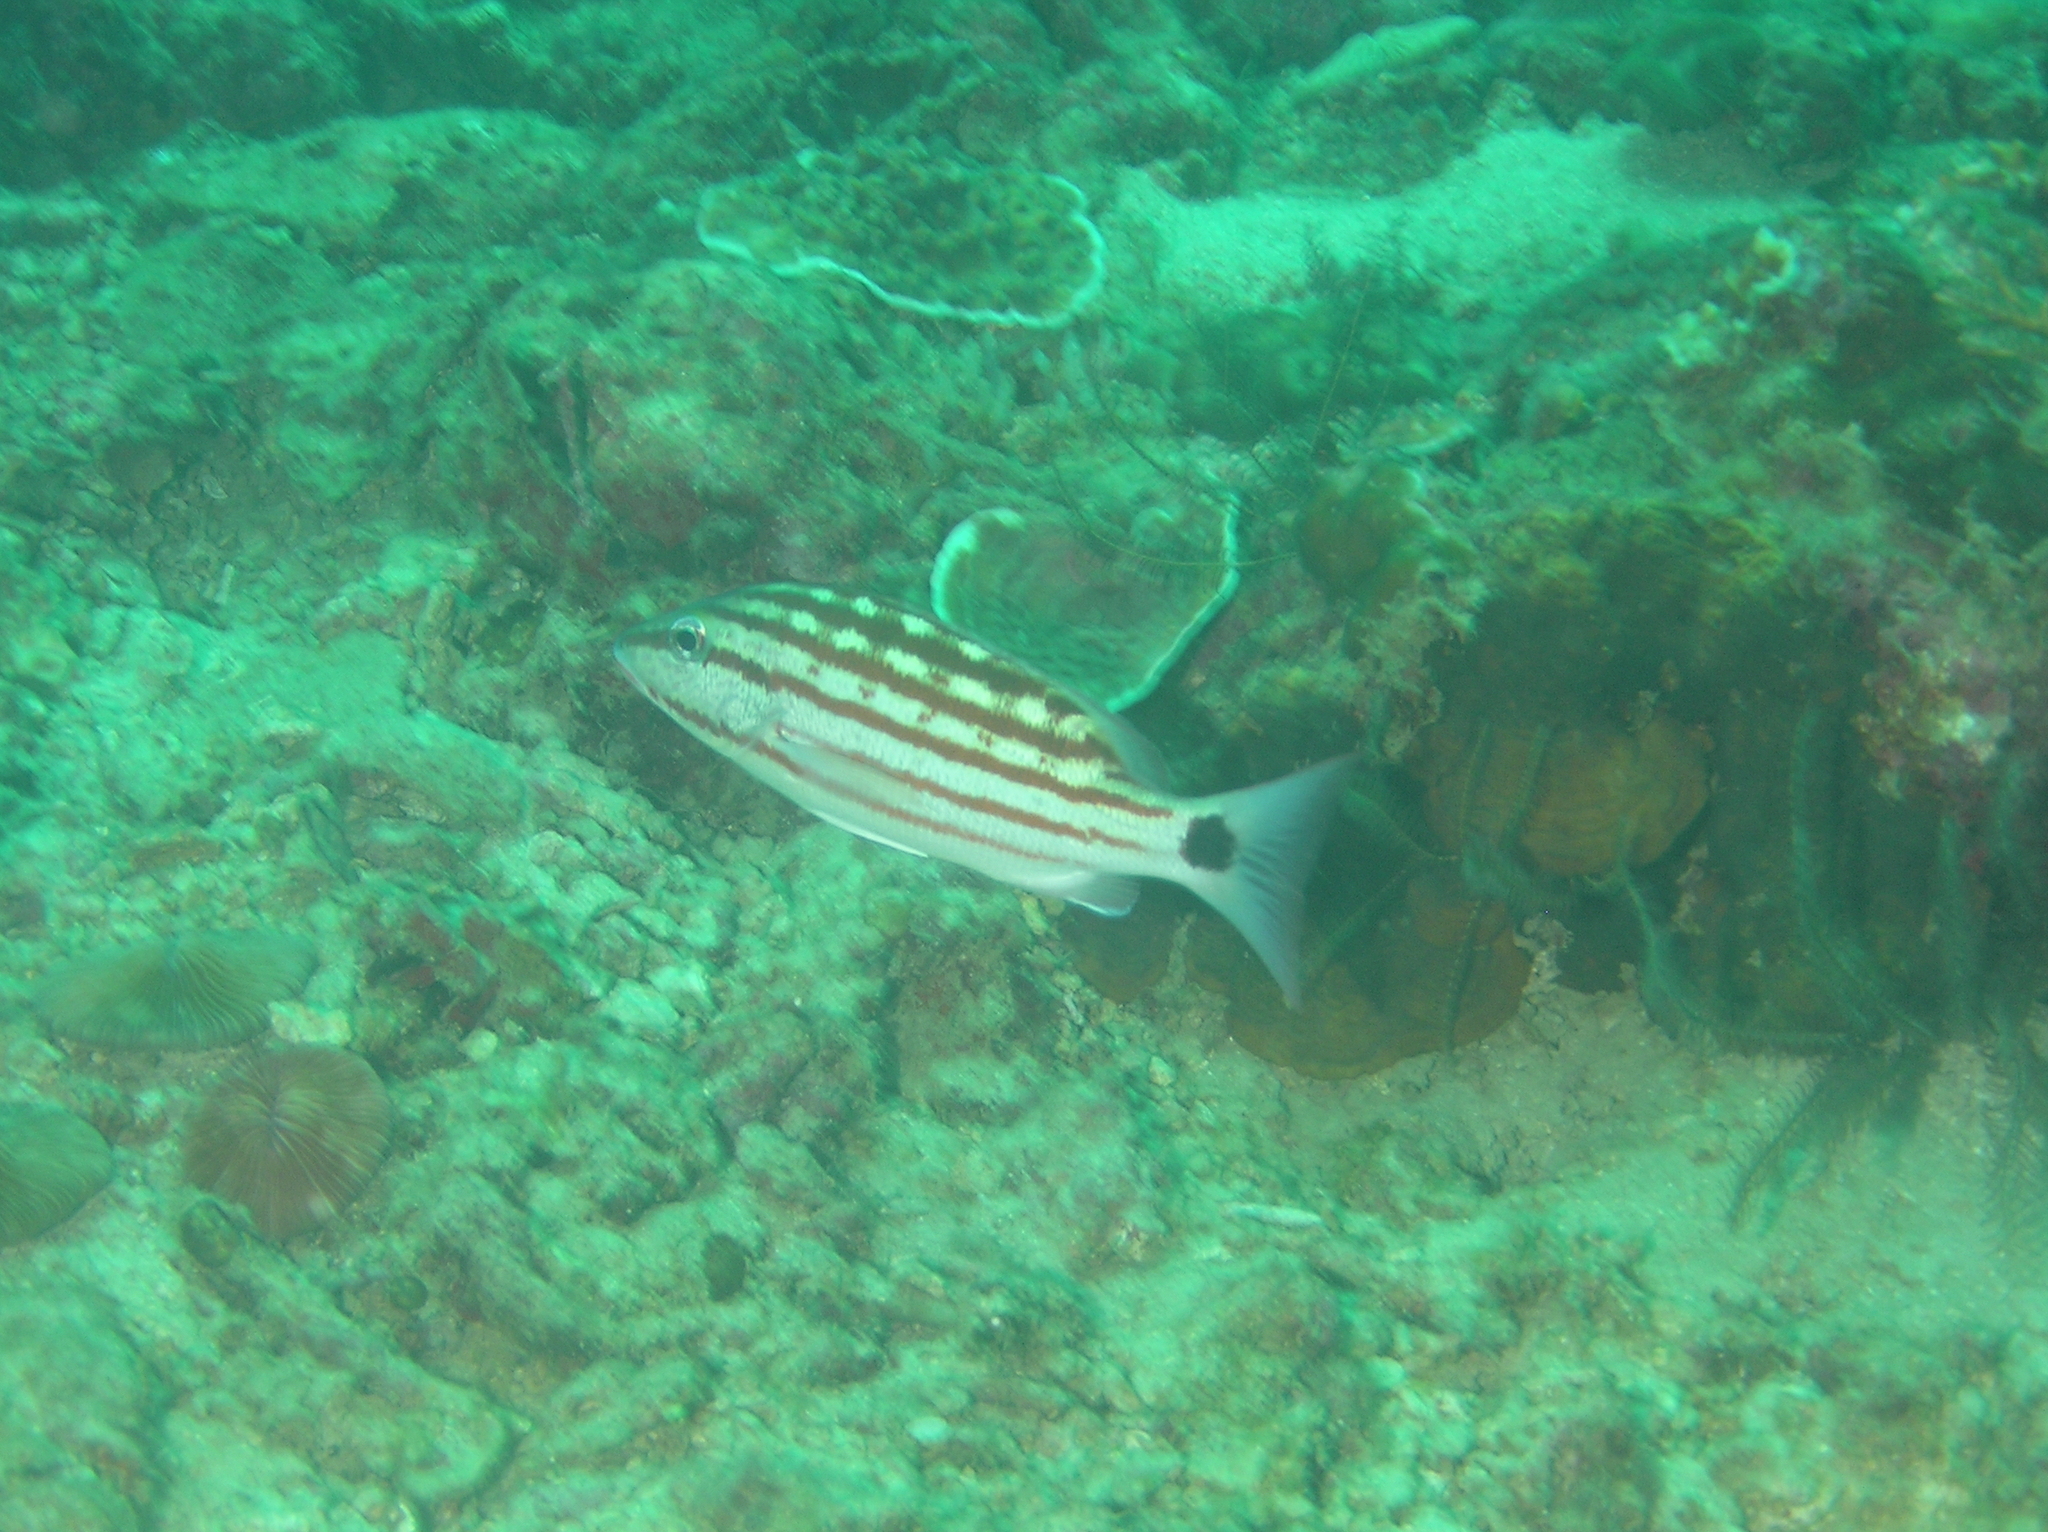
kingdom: Animalia
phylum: Chordata
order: Perciformes
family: Lutjanidae
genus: Lutjanus
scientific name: Lutjanus decussatus
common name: Checkered snapper
